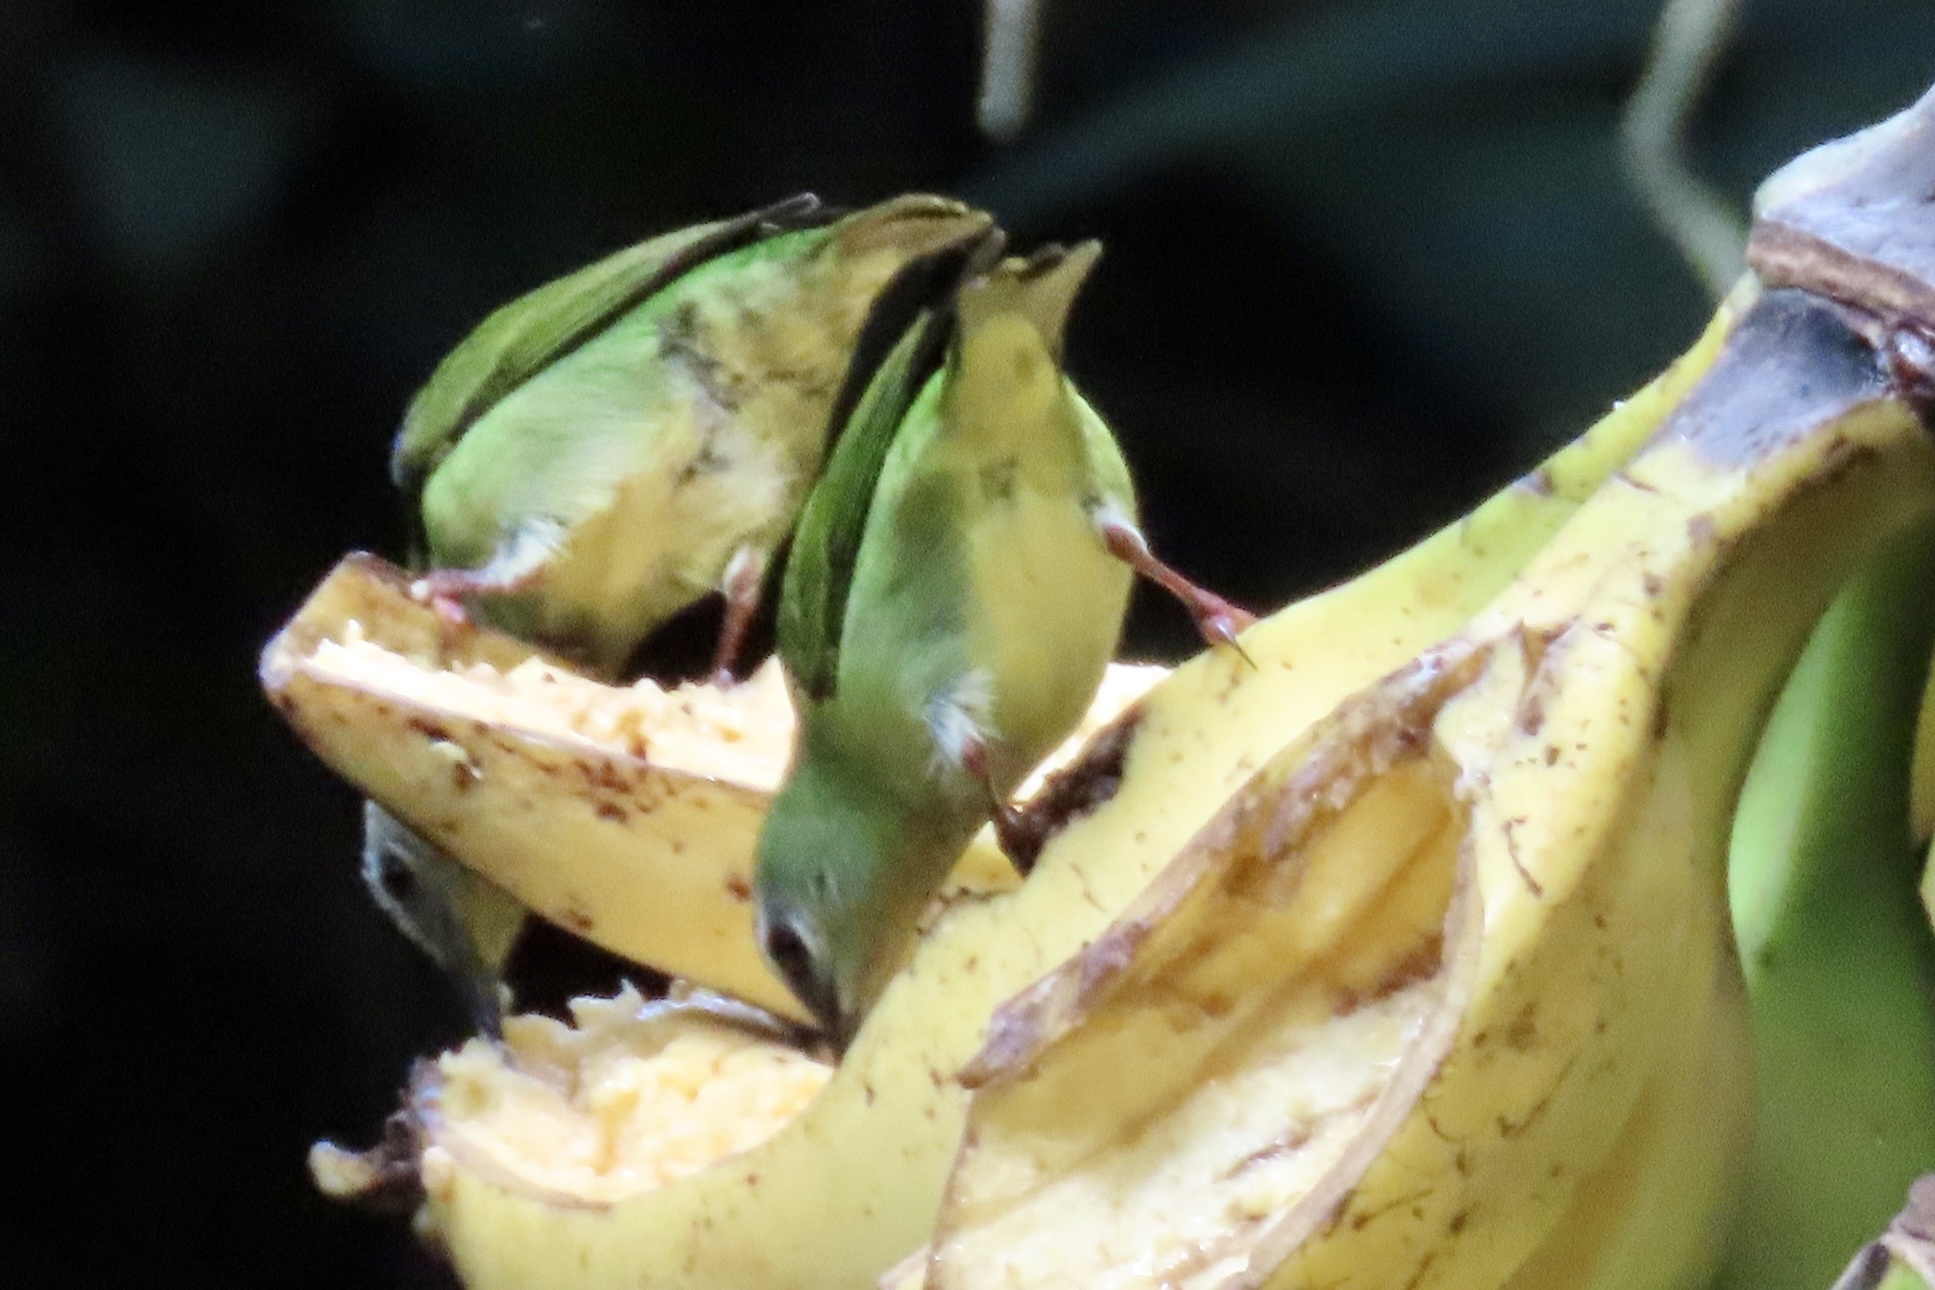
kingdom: Animalia
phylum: Chordata
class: Aves
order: Passeriformes
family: Thraupidae
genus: Cyanerpes
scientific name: Cyanerpes cyaneus
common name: Red-legged honeycreeper
